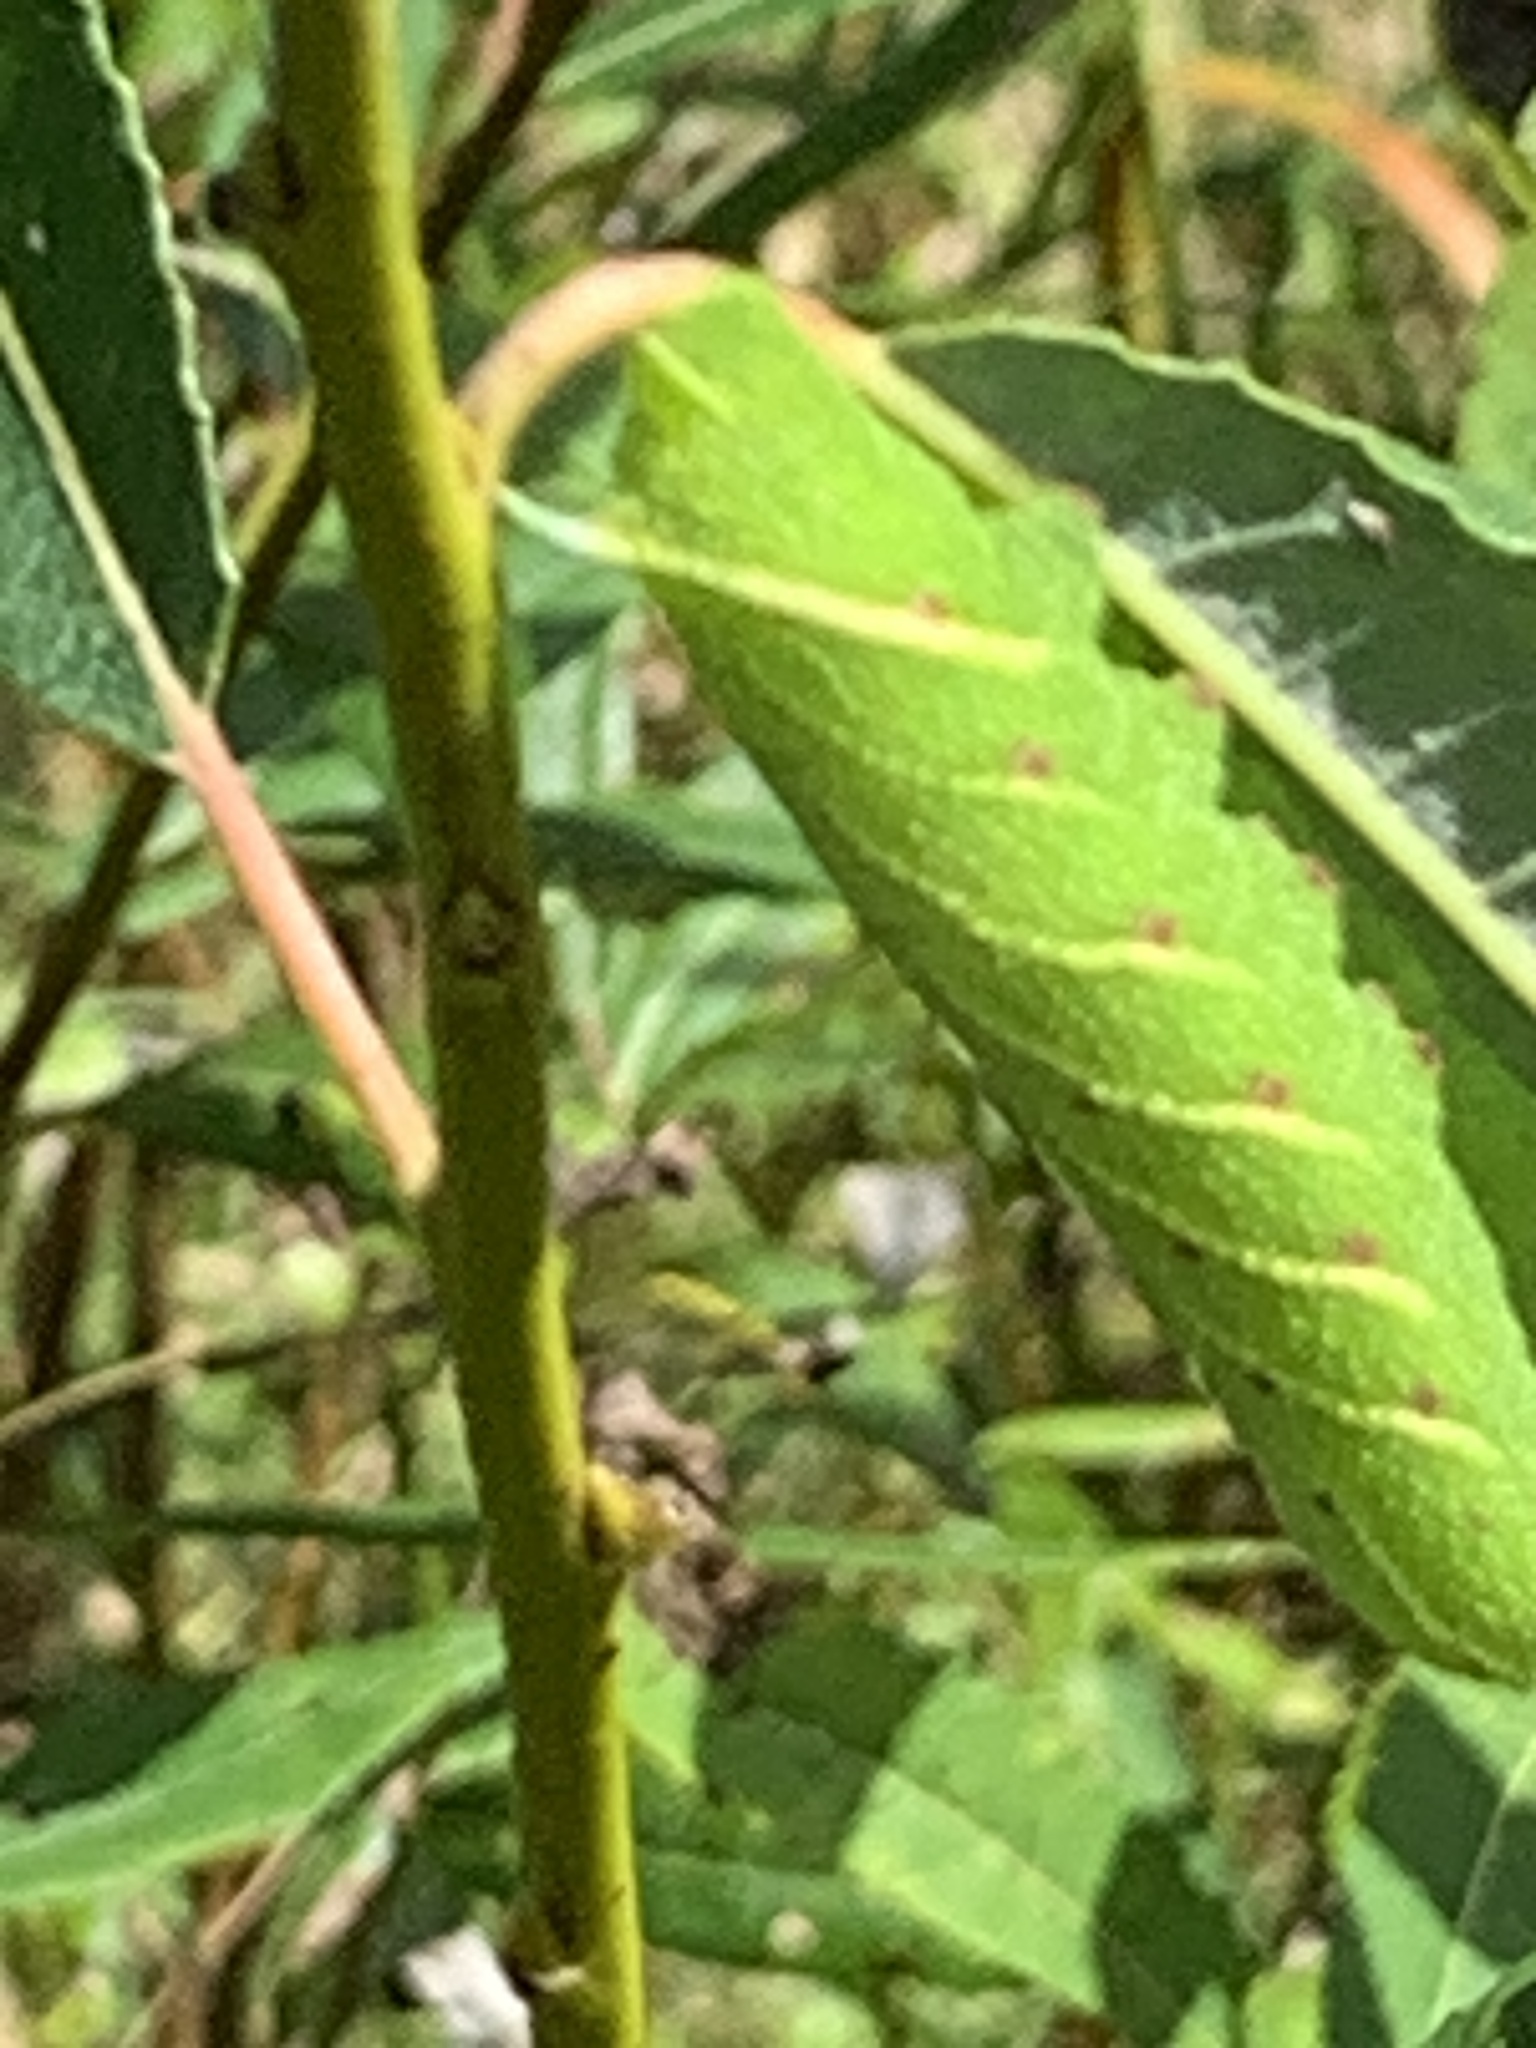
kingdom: Animalia
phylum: Arthropoda
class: Insecta
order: Lepidoptera
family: Sphingidae
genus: Smerinthus
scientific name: Smerinthus jamaicensis
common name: Twin spotted sphinx
